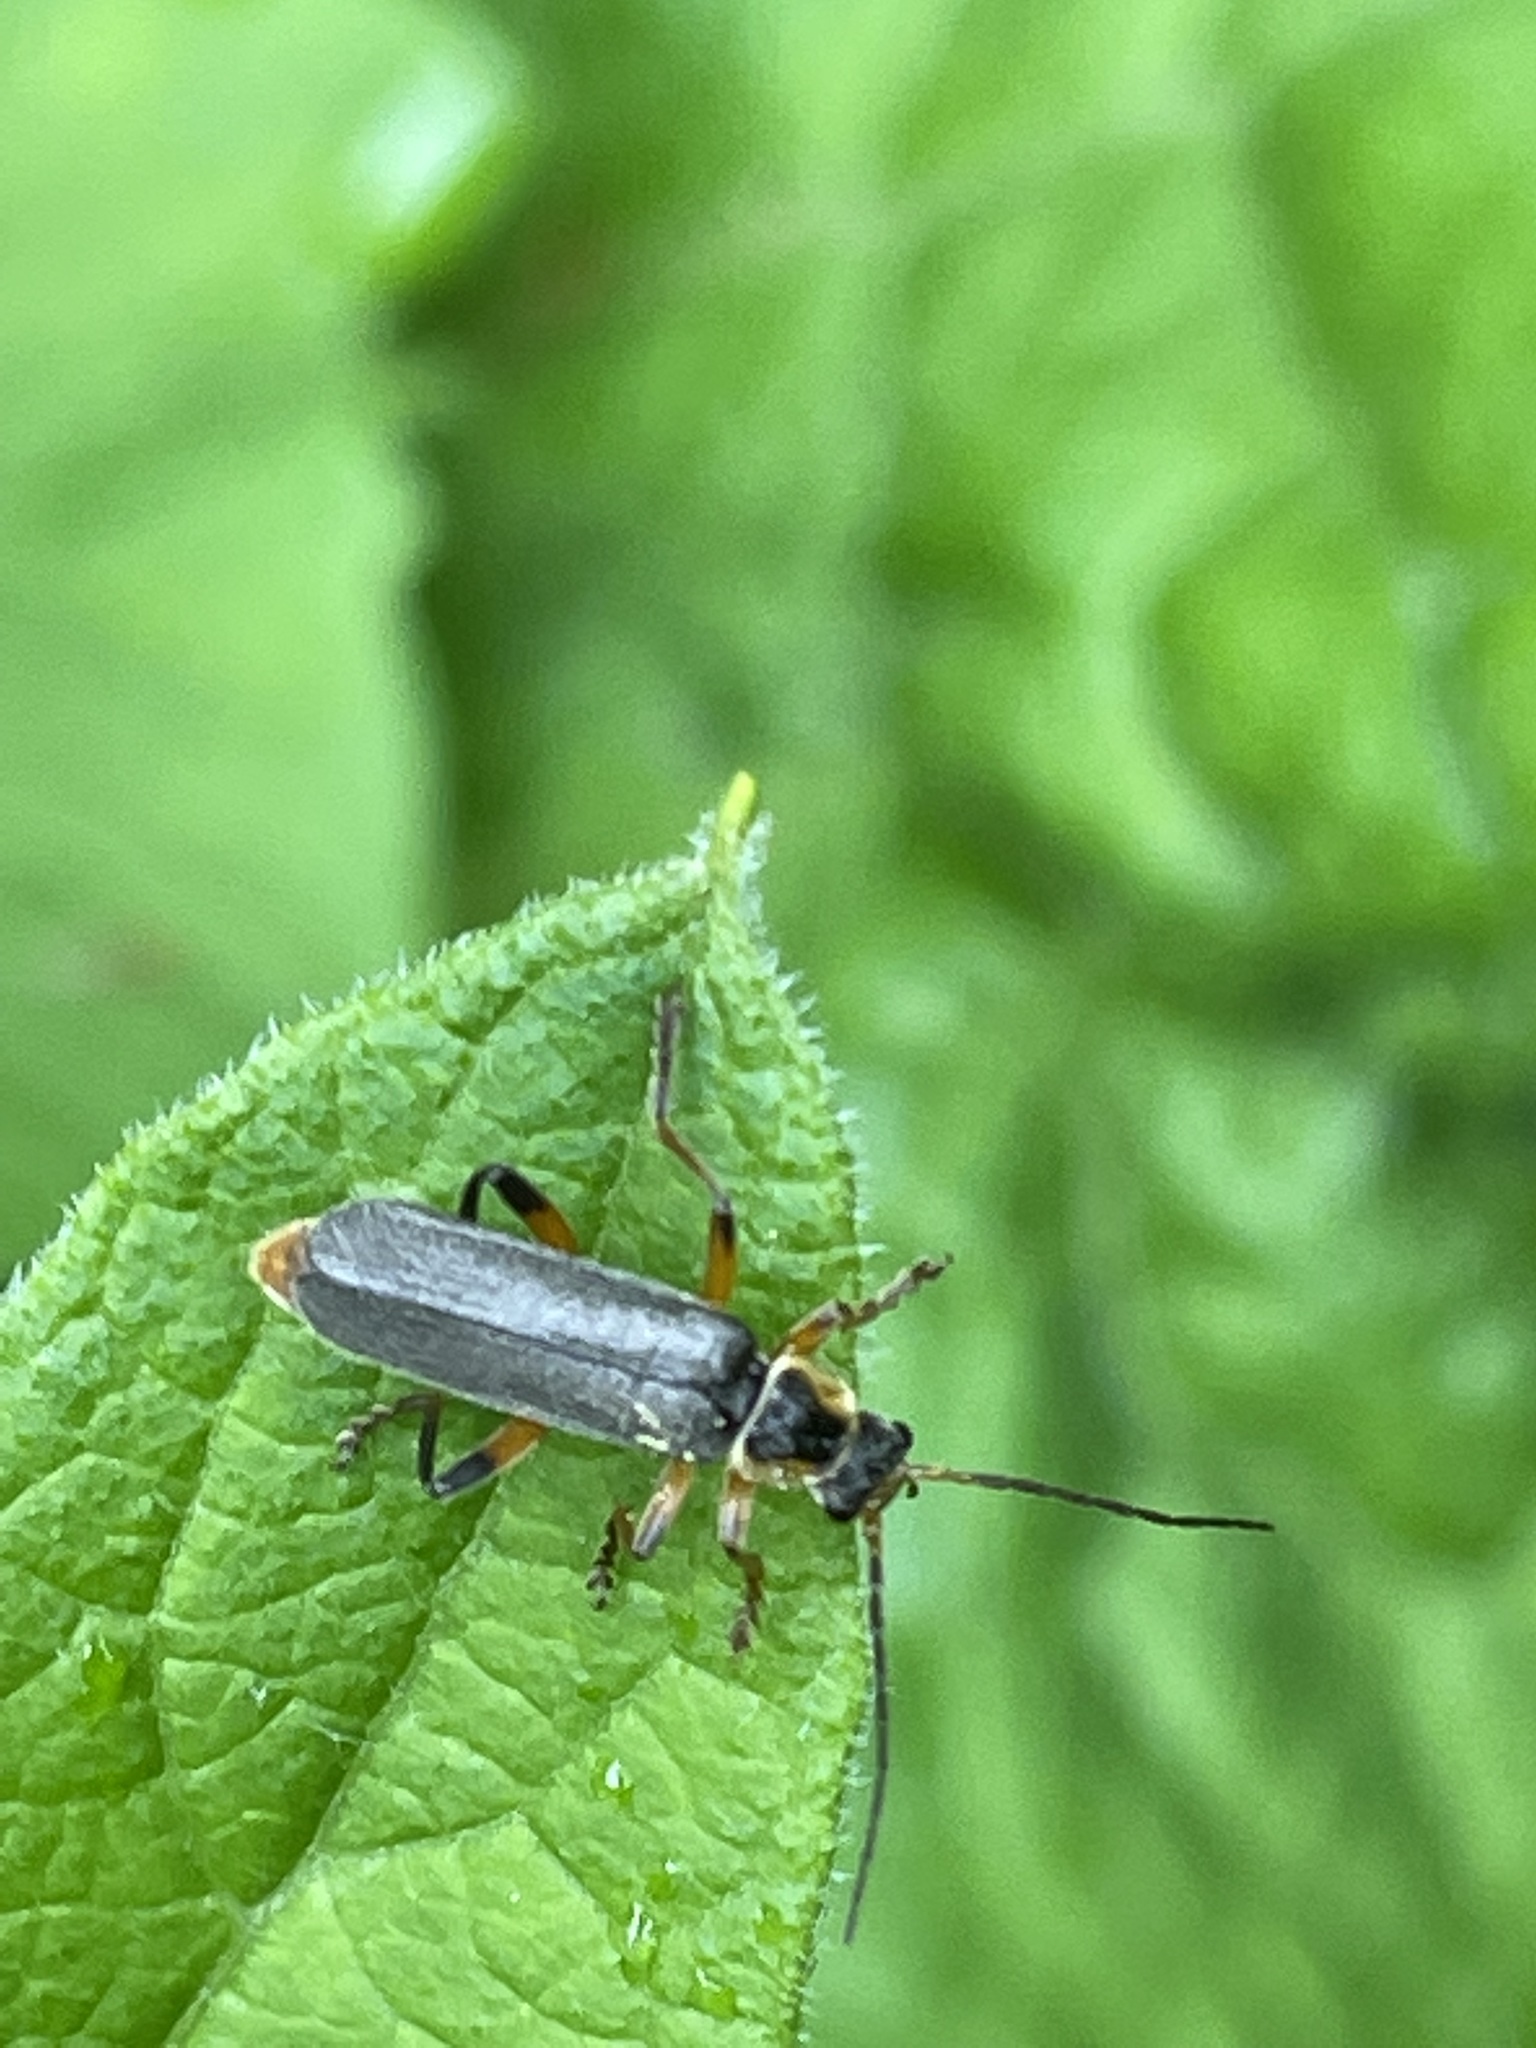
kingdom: Animalia
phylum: Arthropoda
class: Insecta
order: Coleoptera
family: Cantharidae
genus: Cantharis
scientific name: Cantharis nigricans
